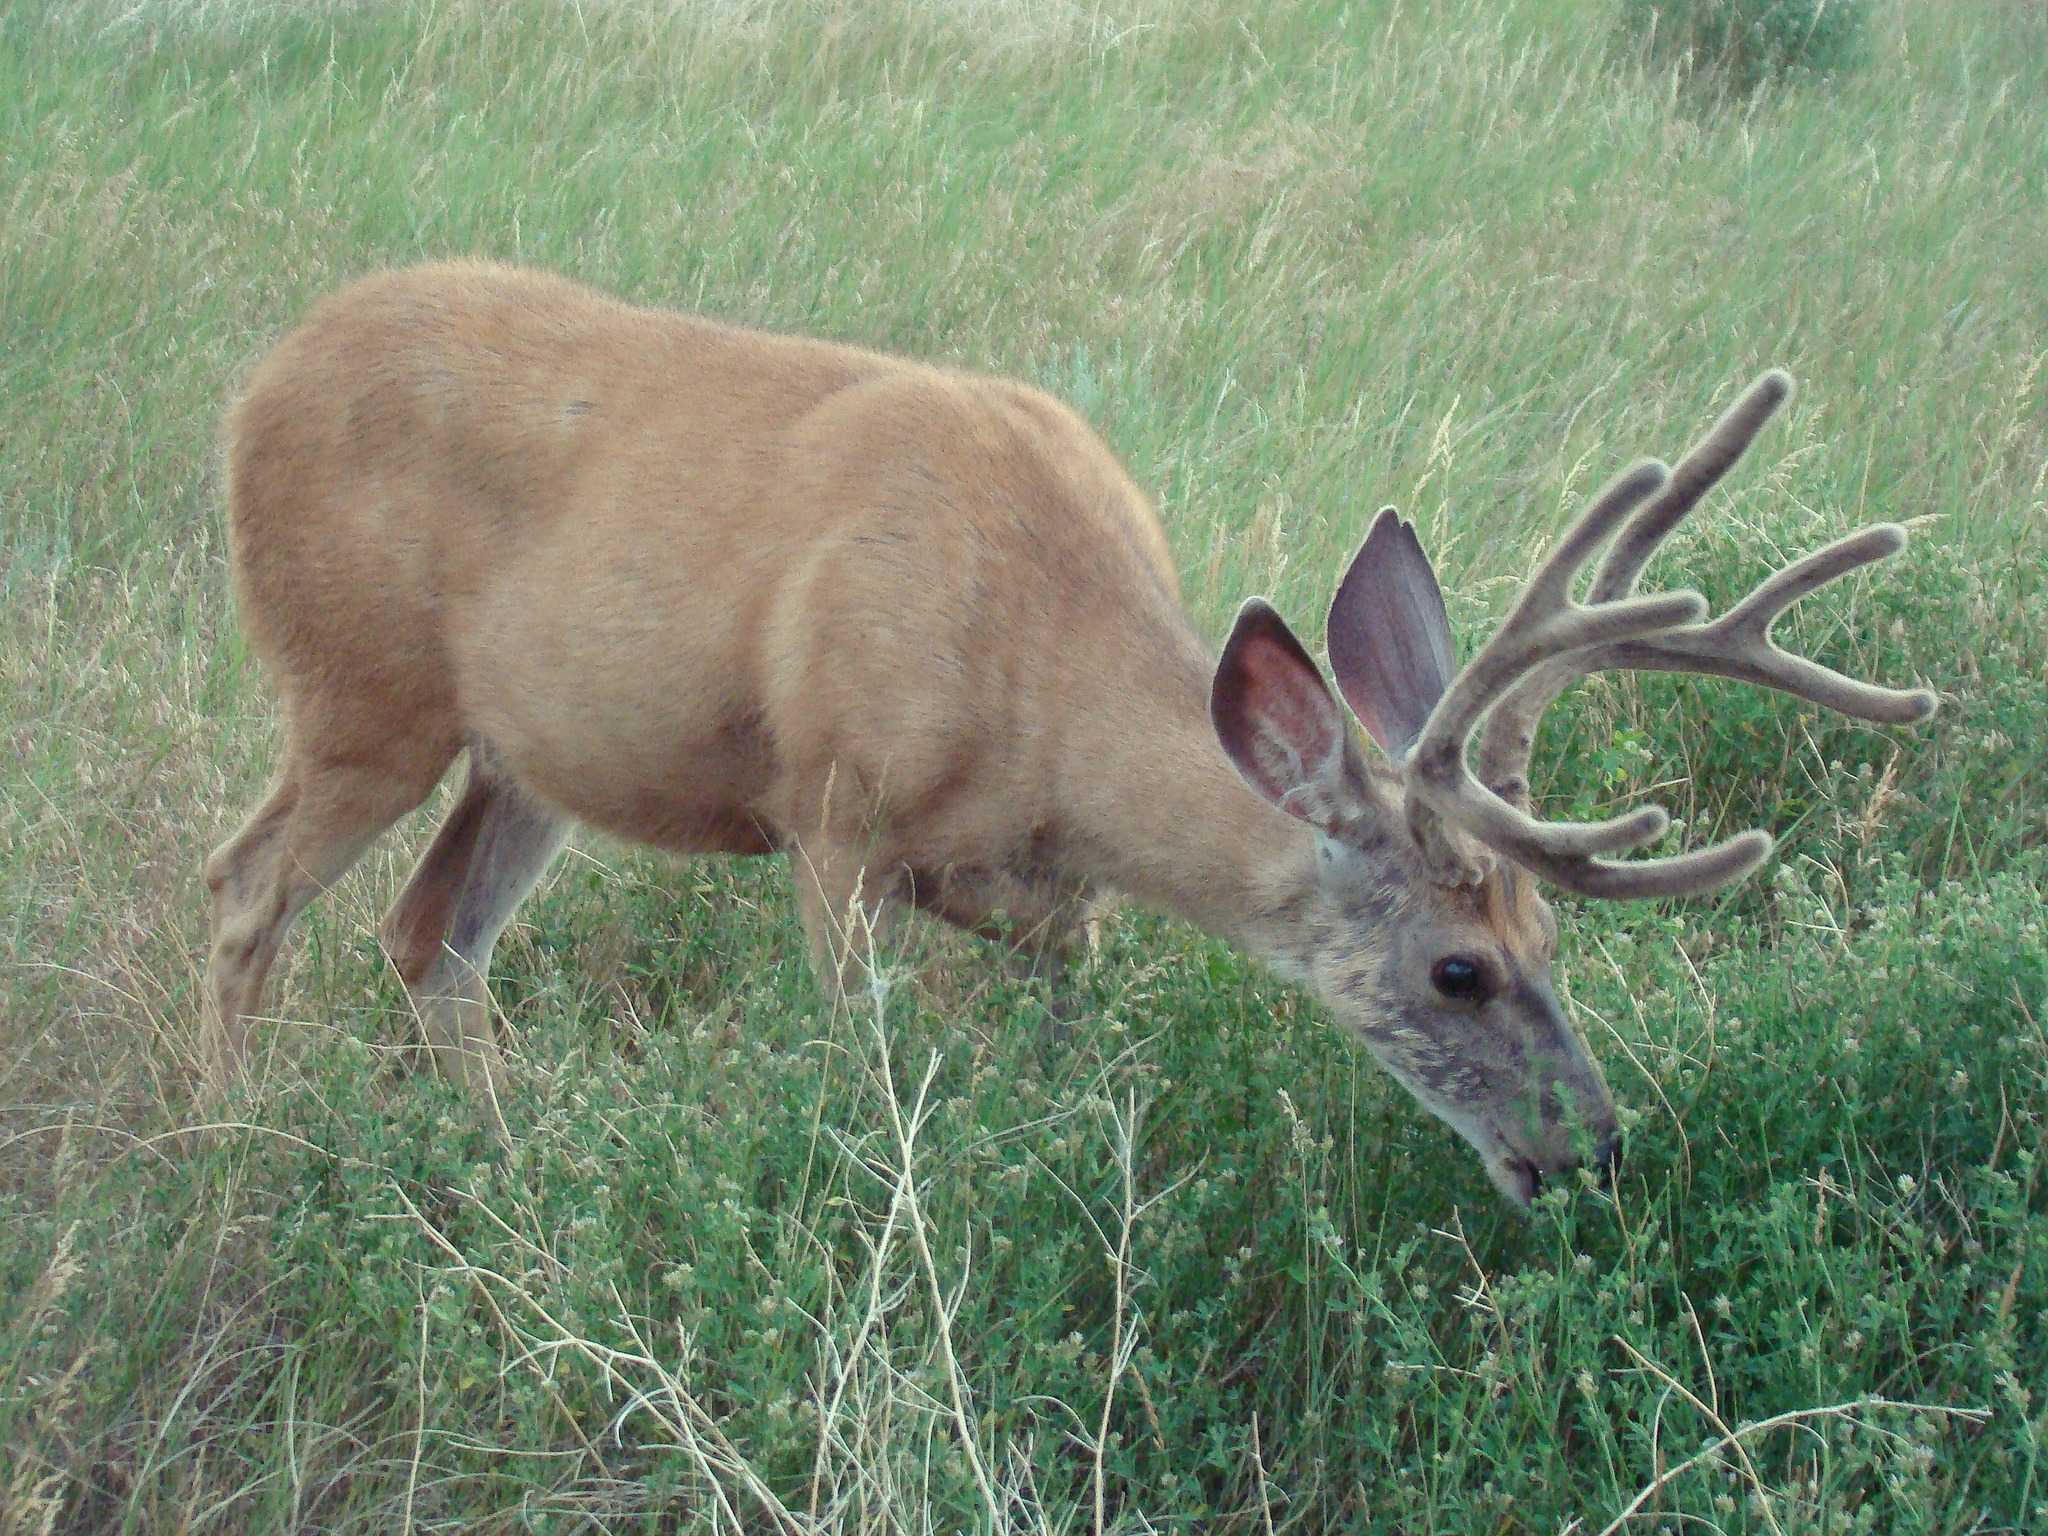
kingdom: Animalia
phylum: Chordata
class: Mammalia
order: Artiodactyla
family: Cervidae
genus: Odocoileus
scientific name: Odocoileus hemionus
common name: Mule deer
